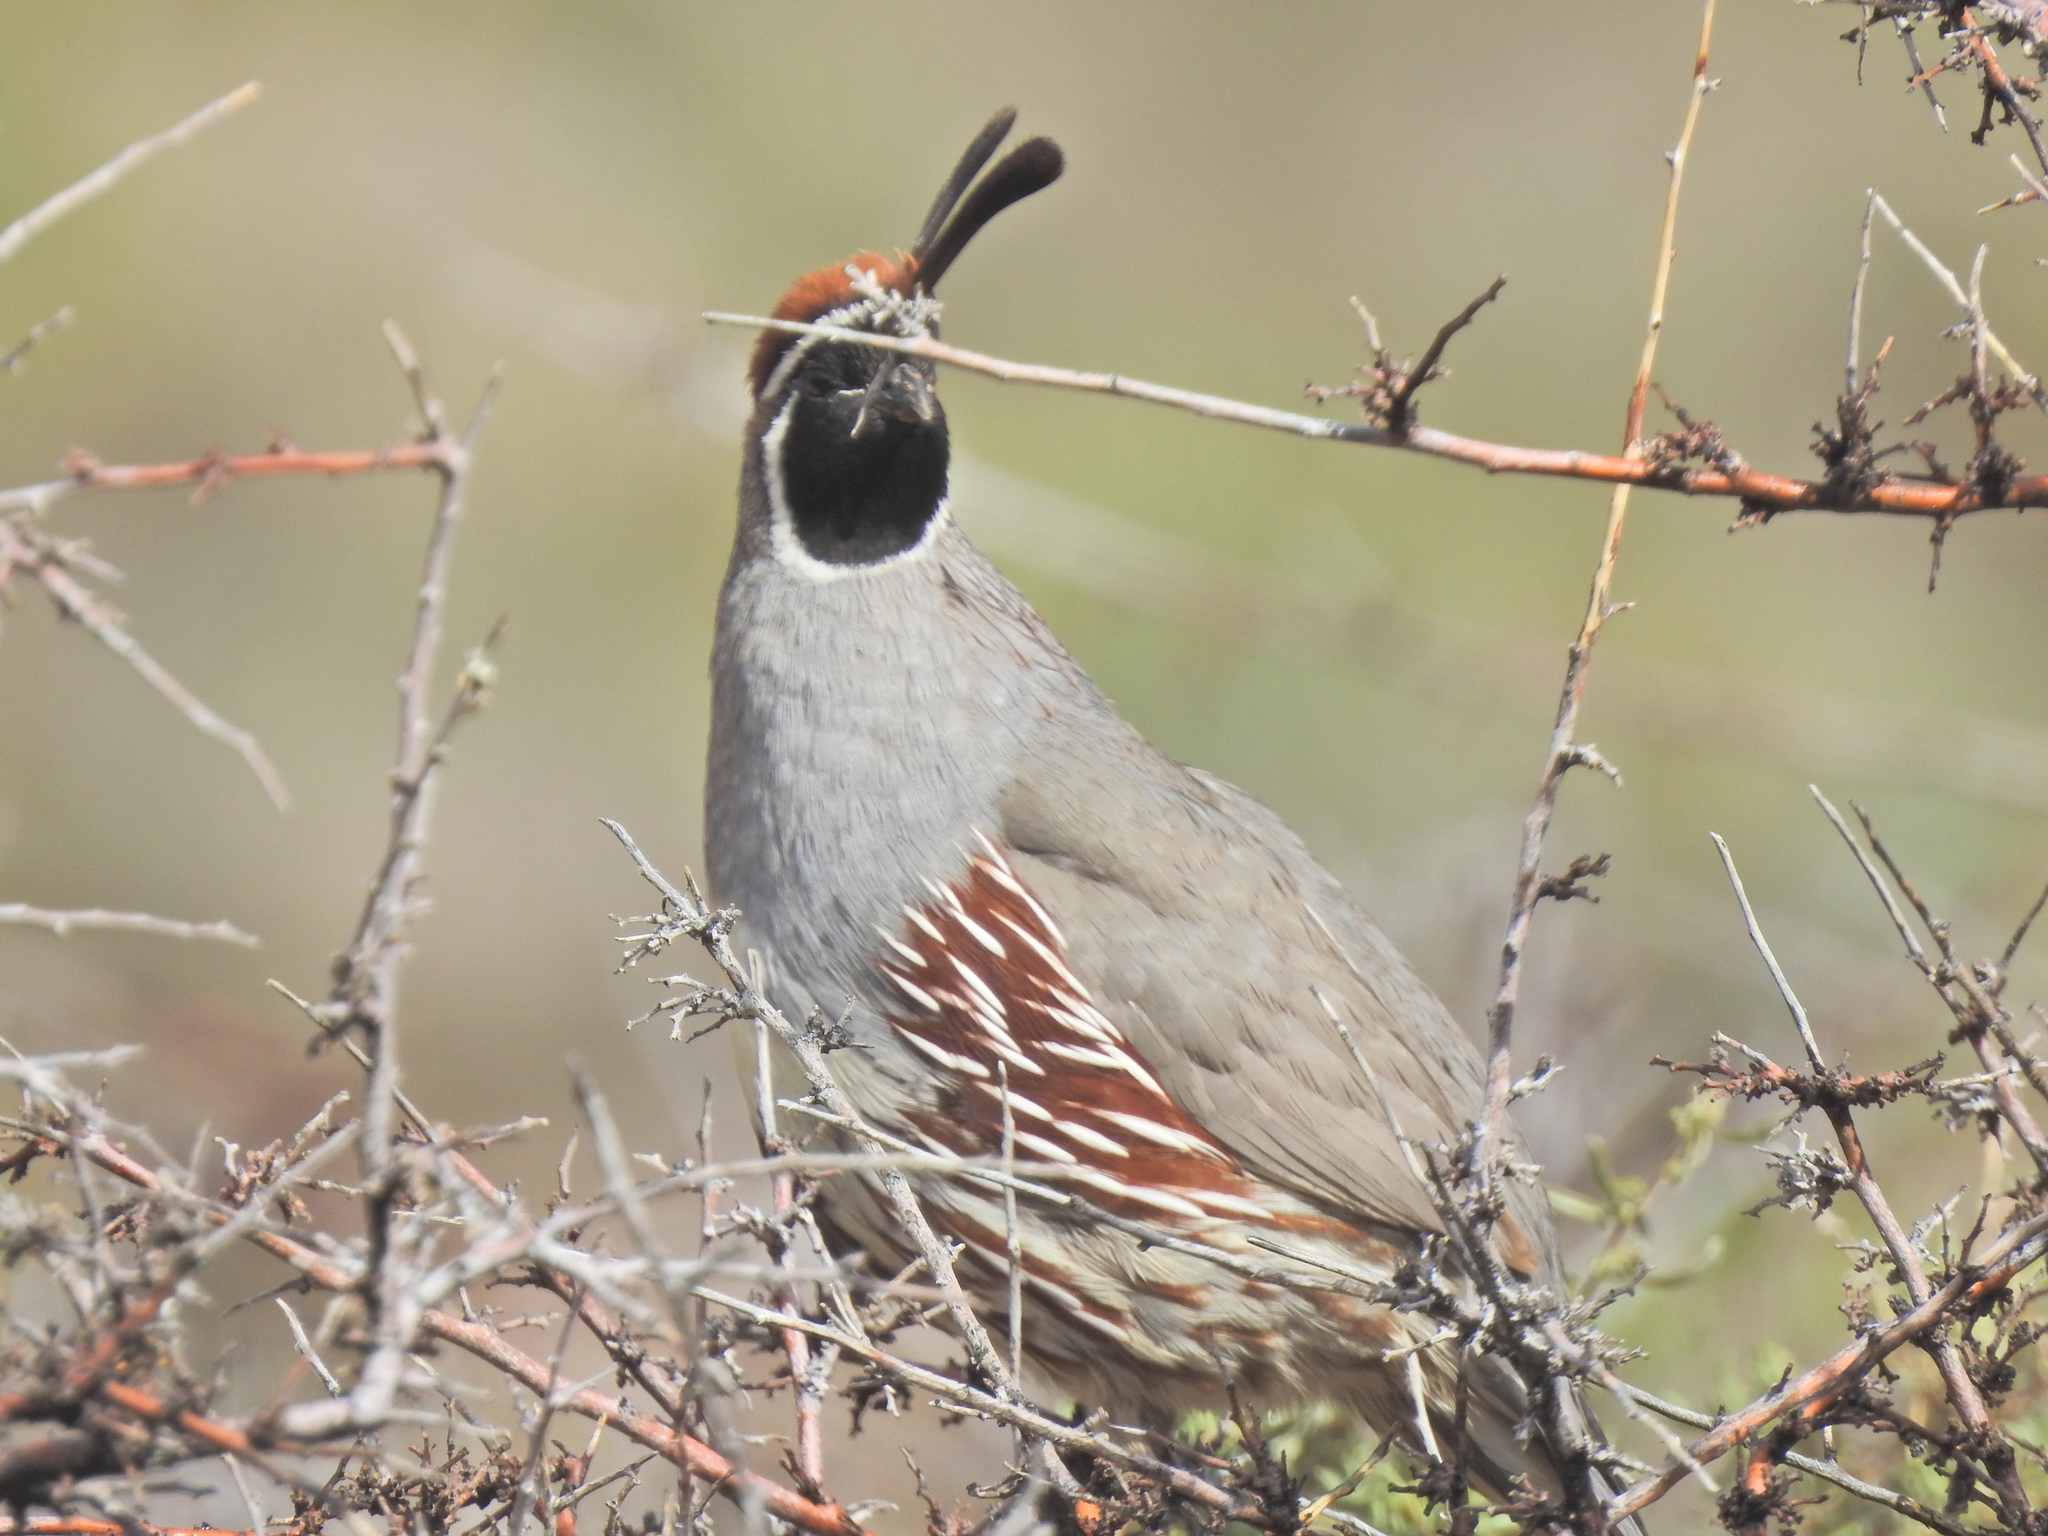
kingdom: Animalia
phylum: Chordata
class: Aves
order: Galliformes
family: Odontophoridae
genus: Callipepla
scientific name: Callipepla gambelii
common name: Gambel's quail
